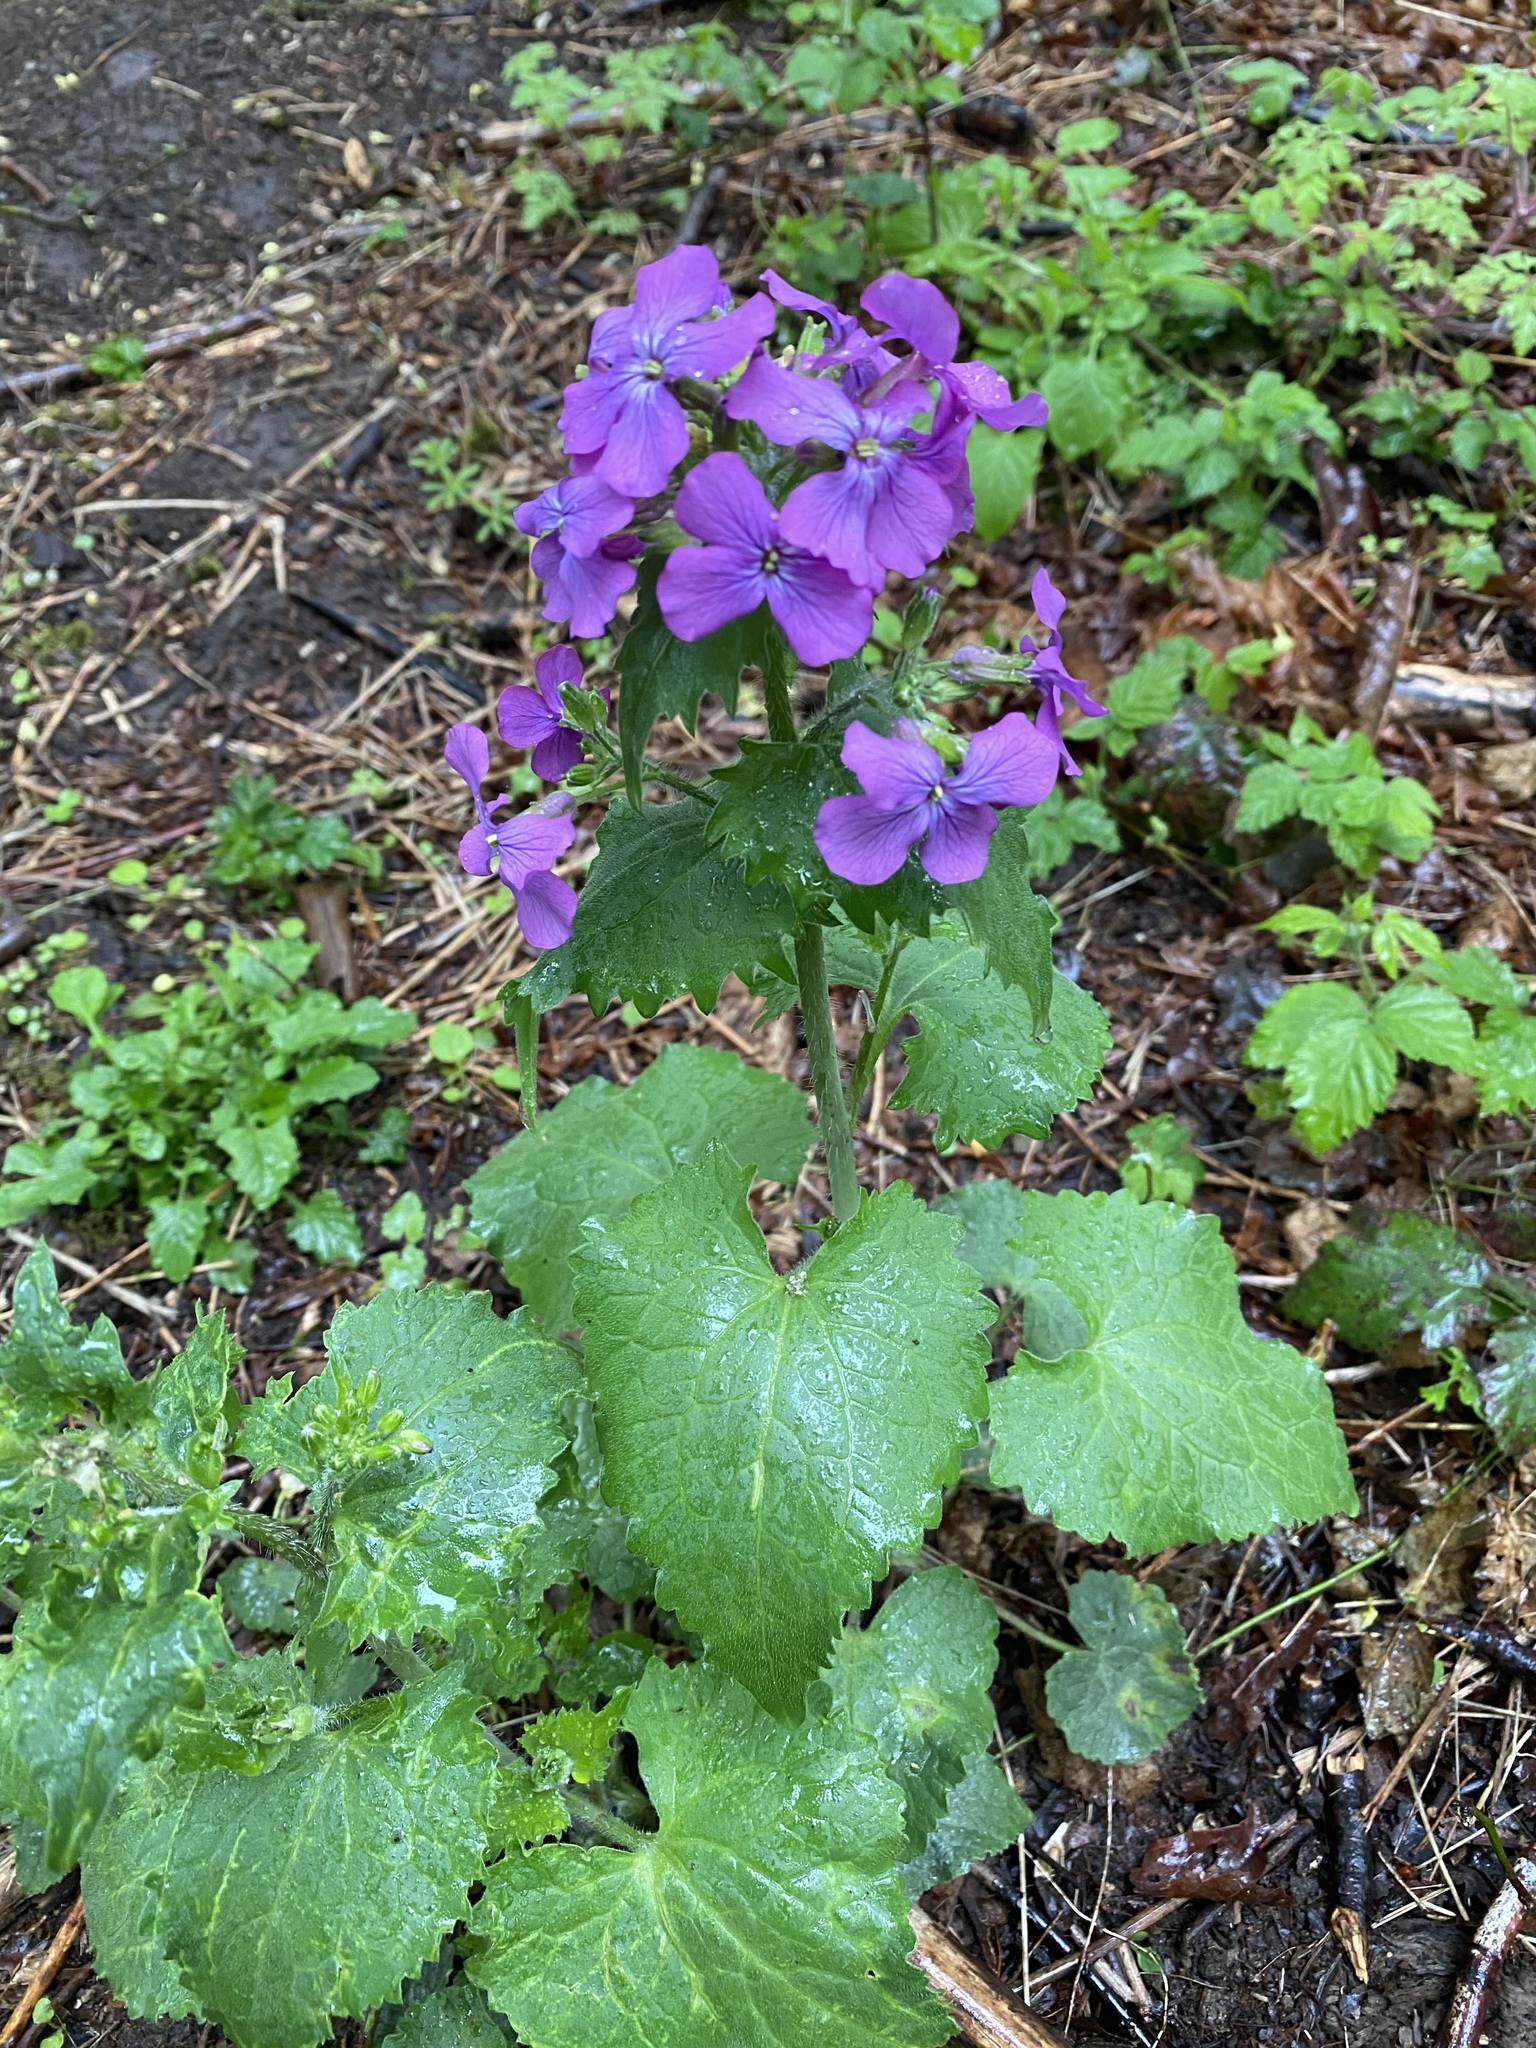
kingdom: Plantae
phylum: Tracheophyta
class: Magnoliopsida
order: Brassicales
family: Brassicaceae
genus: Lunaria
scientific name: Lunaria annua
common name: Honesty
